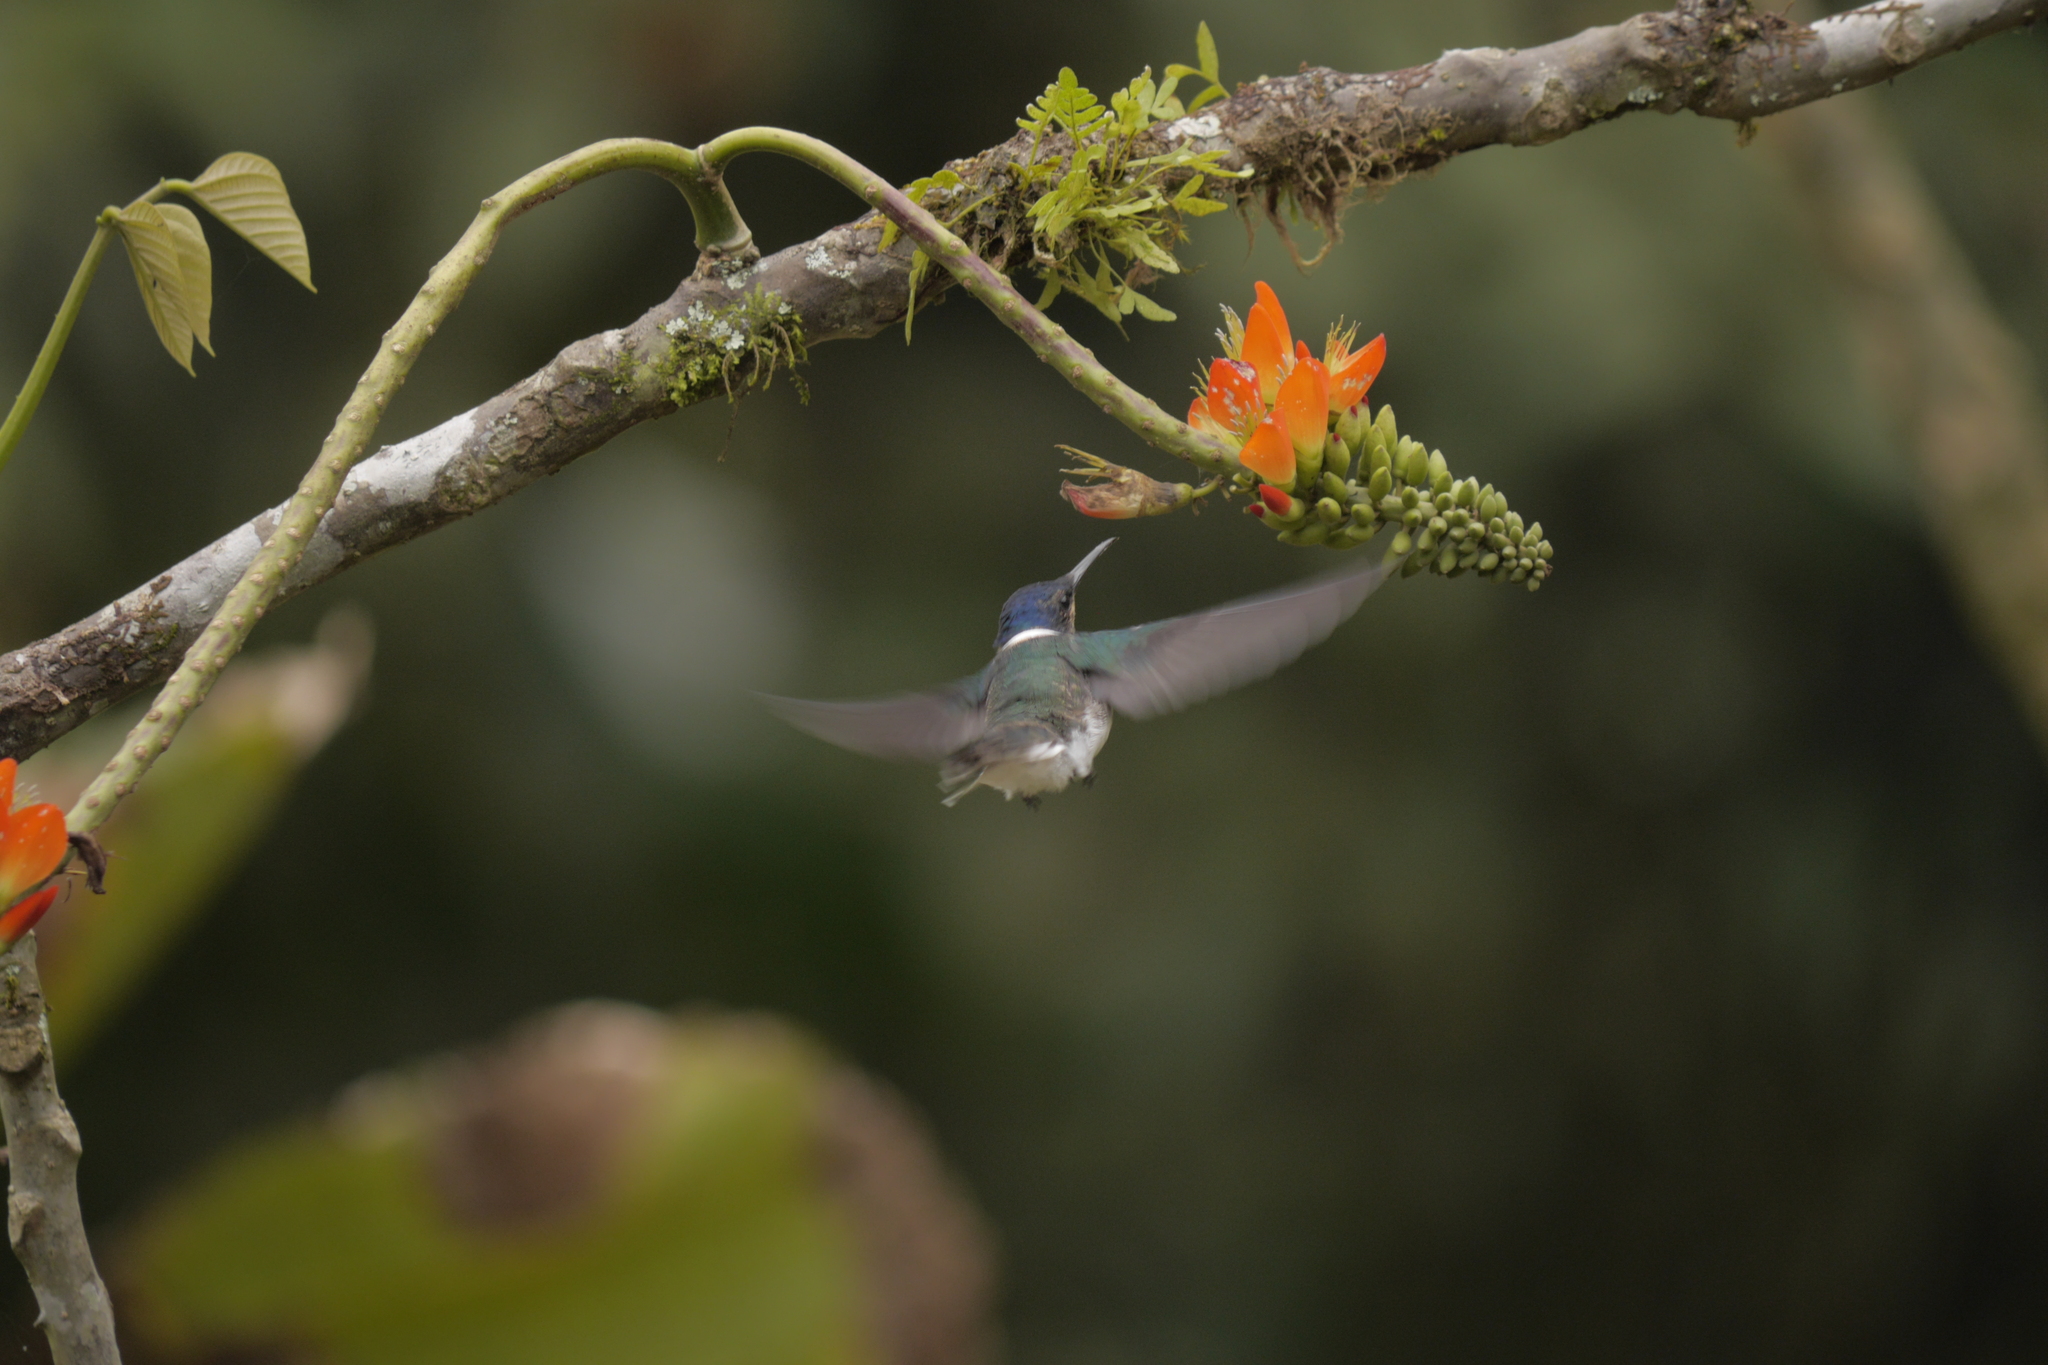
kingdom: Animalia
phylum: Chordata
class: Aves
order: Apodiformes
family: Trochilidae
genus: Florisuga
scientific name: Florisuga mellivora
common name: White-necked jacobin
